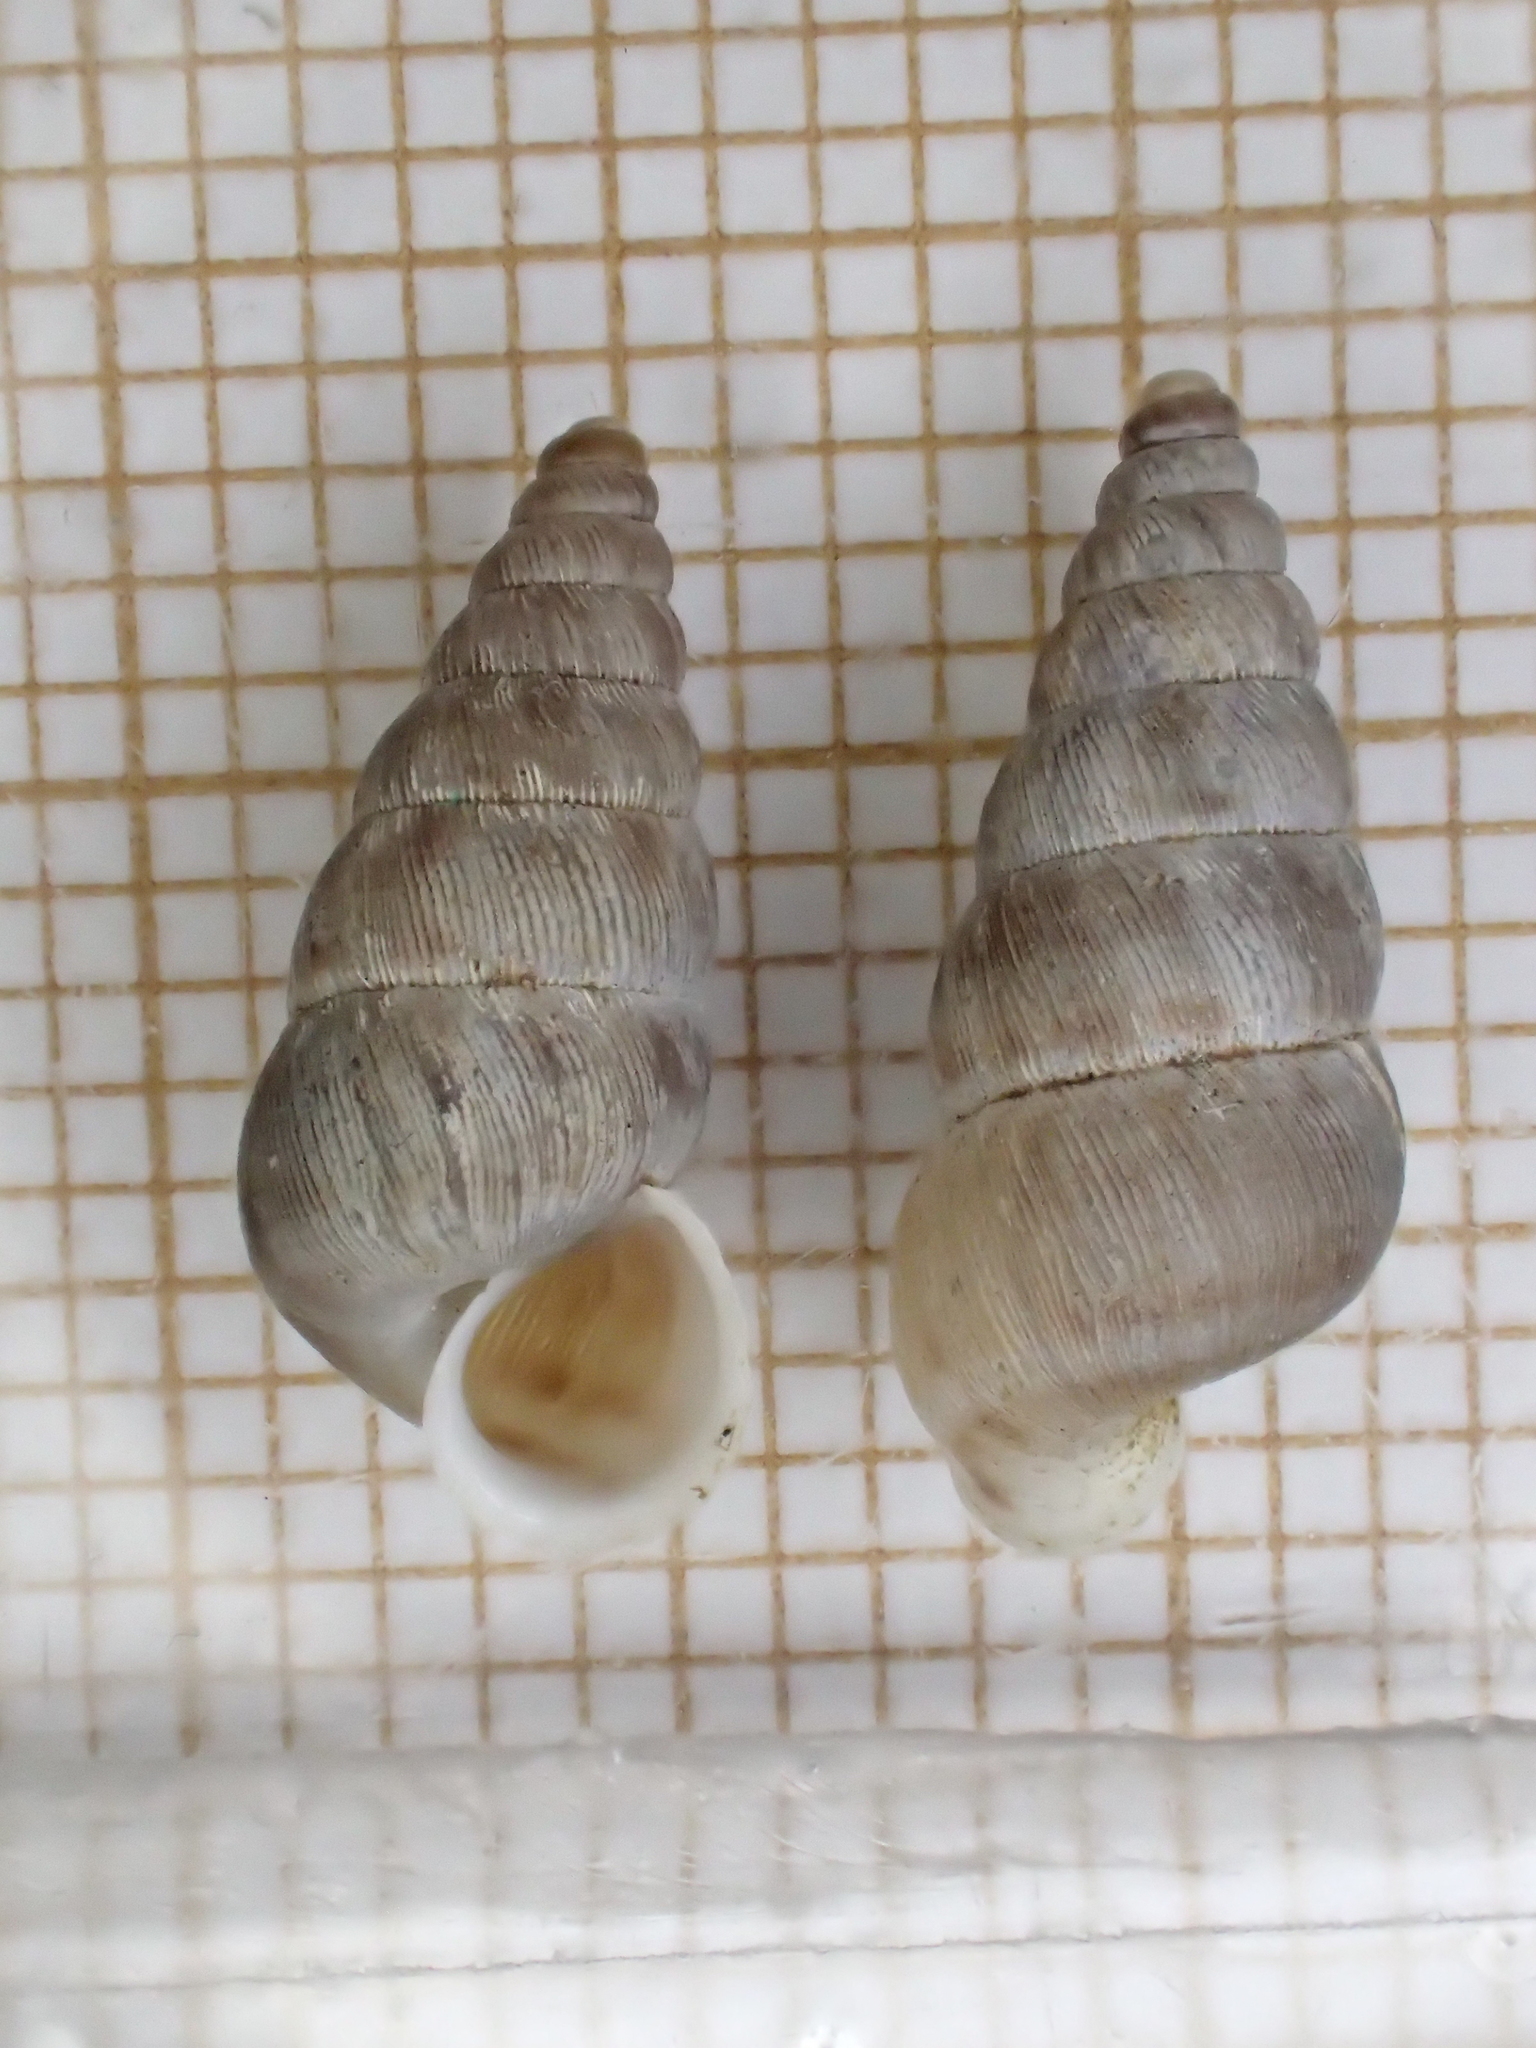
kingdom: Animalia
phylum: Mollusca
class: Gastropoda
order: Architaenioglossa
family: Cochlostomatidae
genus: Obscurella
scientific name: Obscurella obscura
